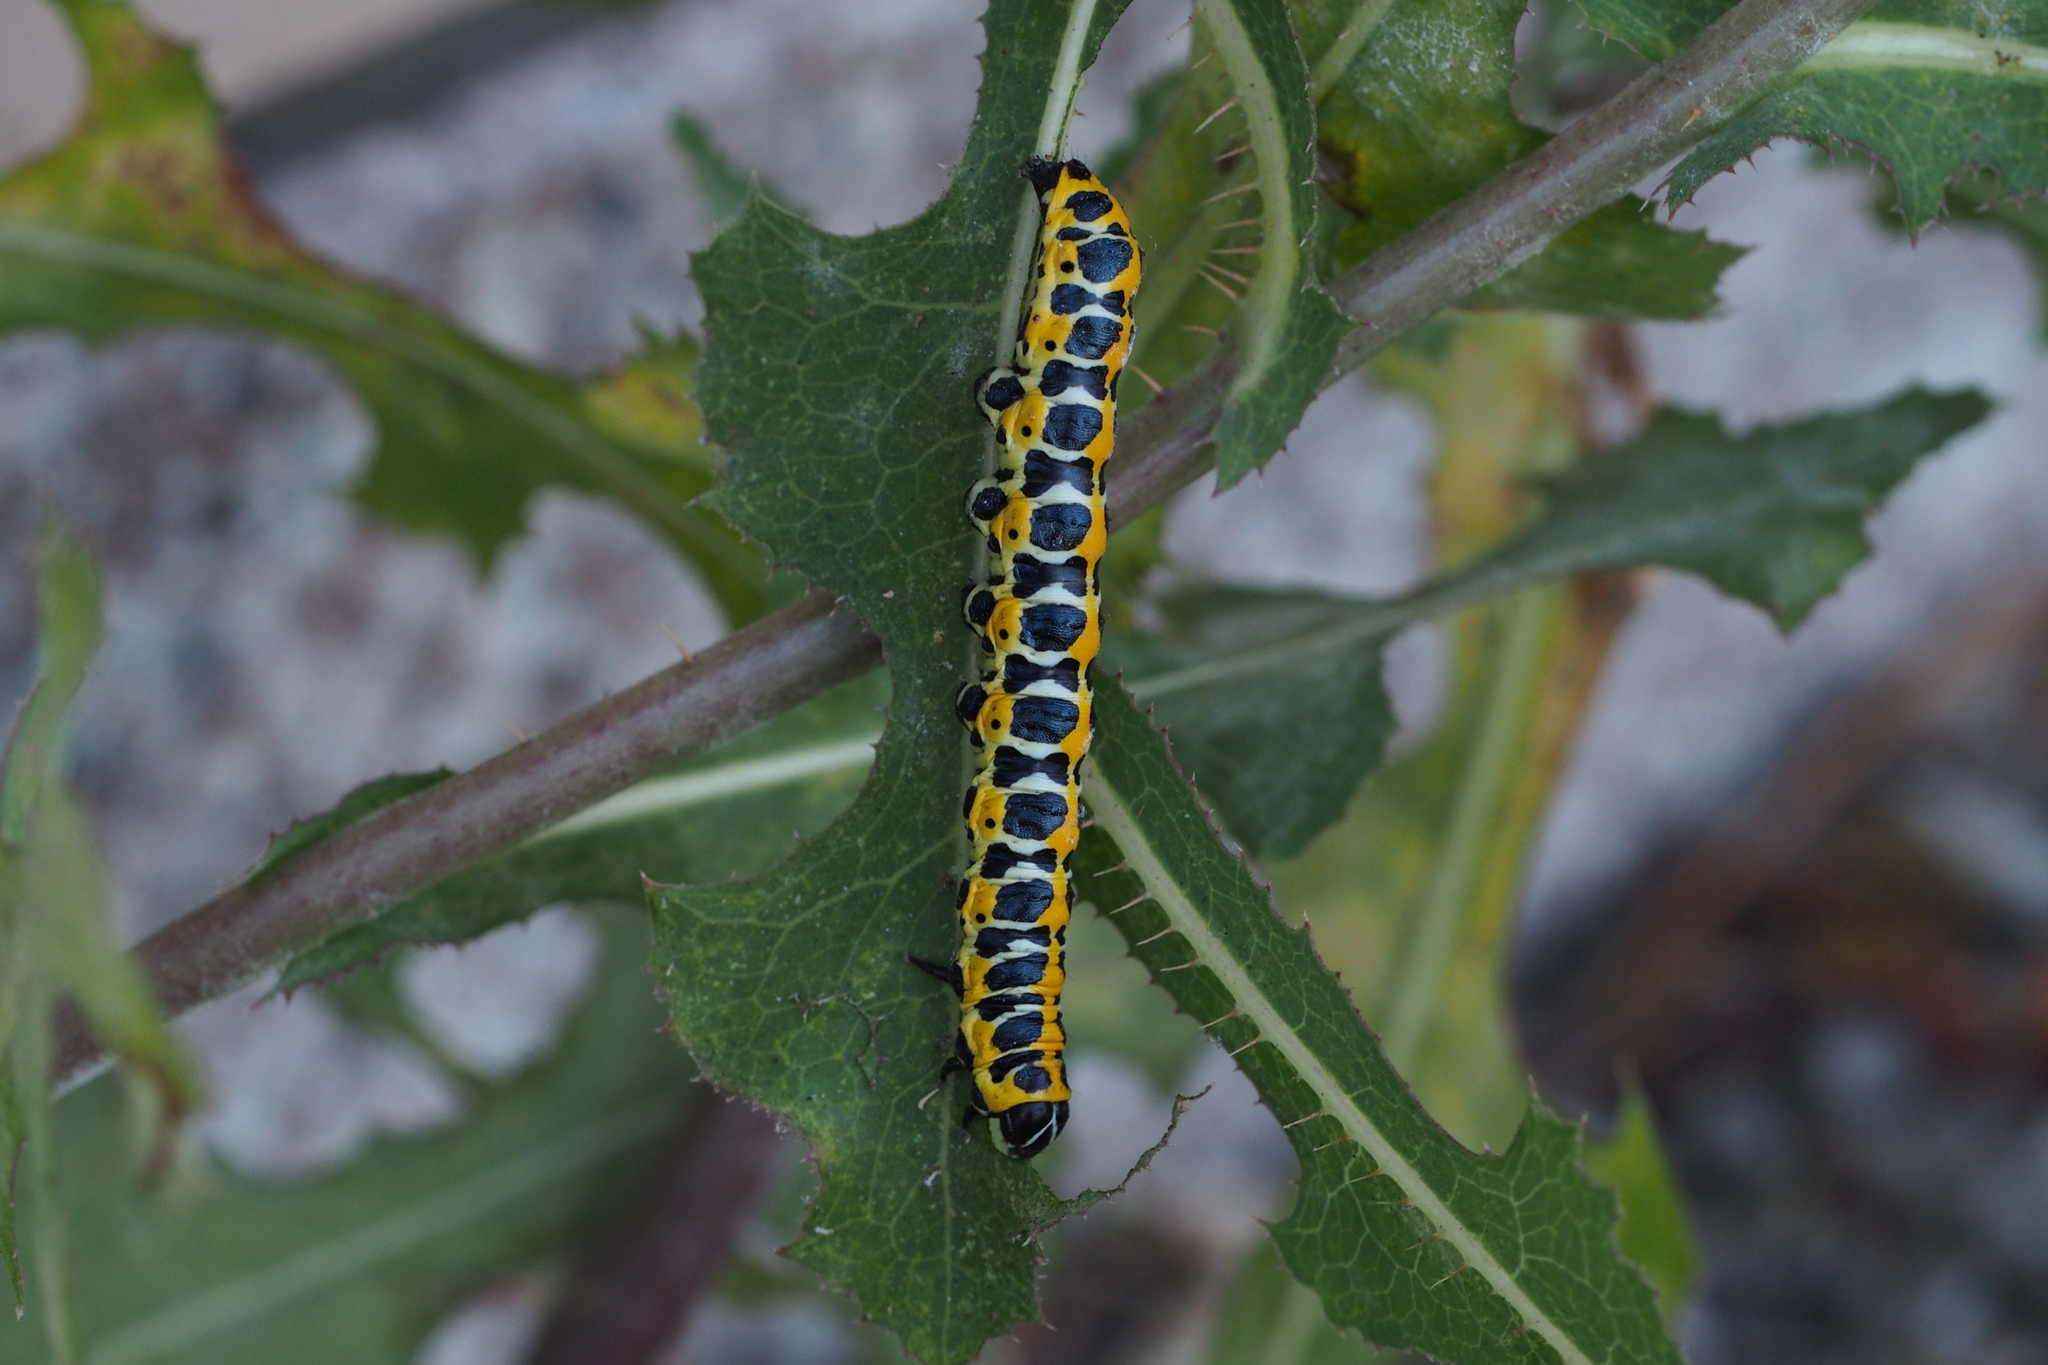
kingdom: Animalia
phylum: Arthropoda
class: Insecta
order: Lepidoptera
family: Noctuidae
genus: Cucullia
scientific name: Cucullia pustulata
